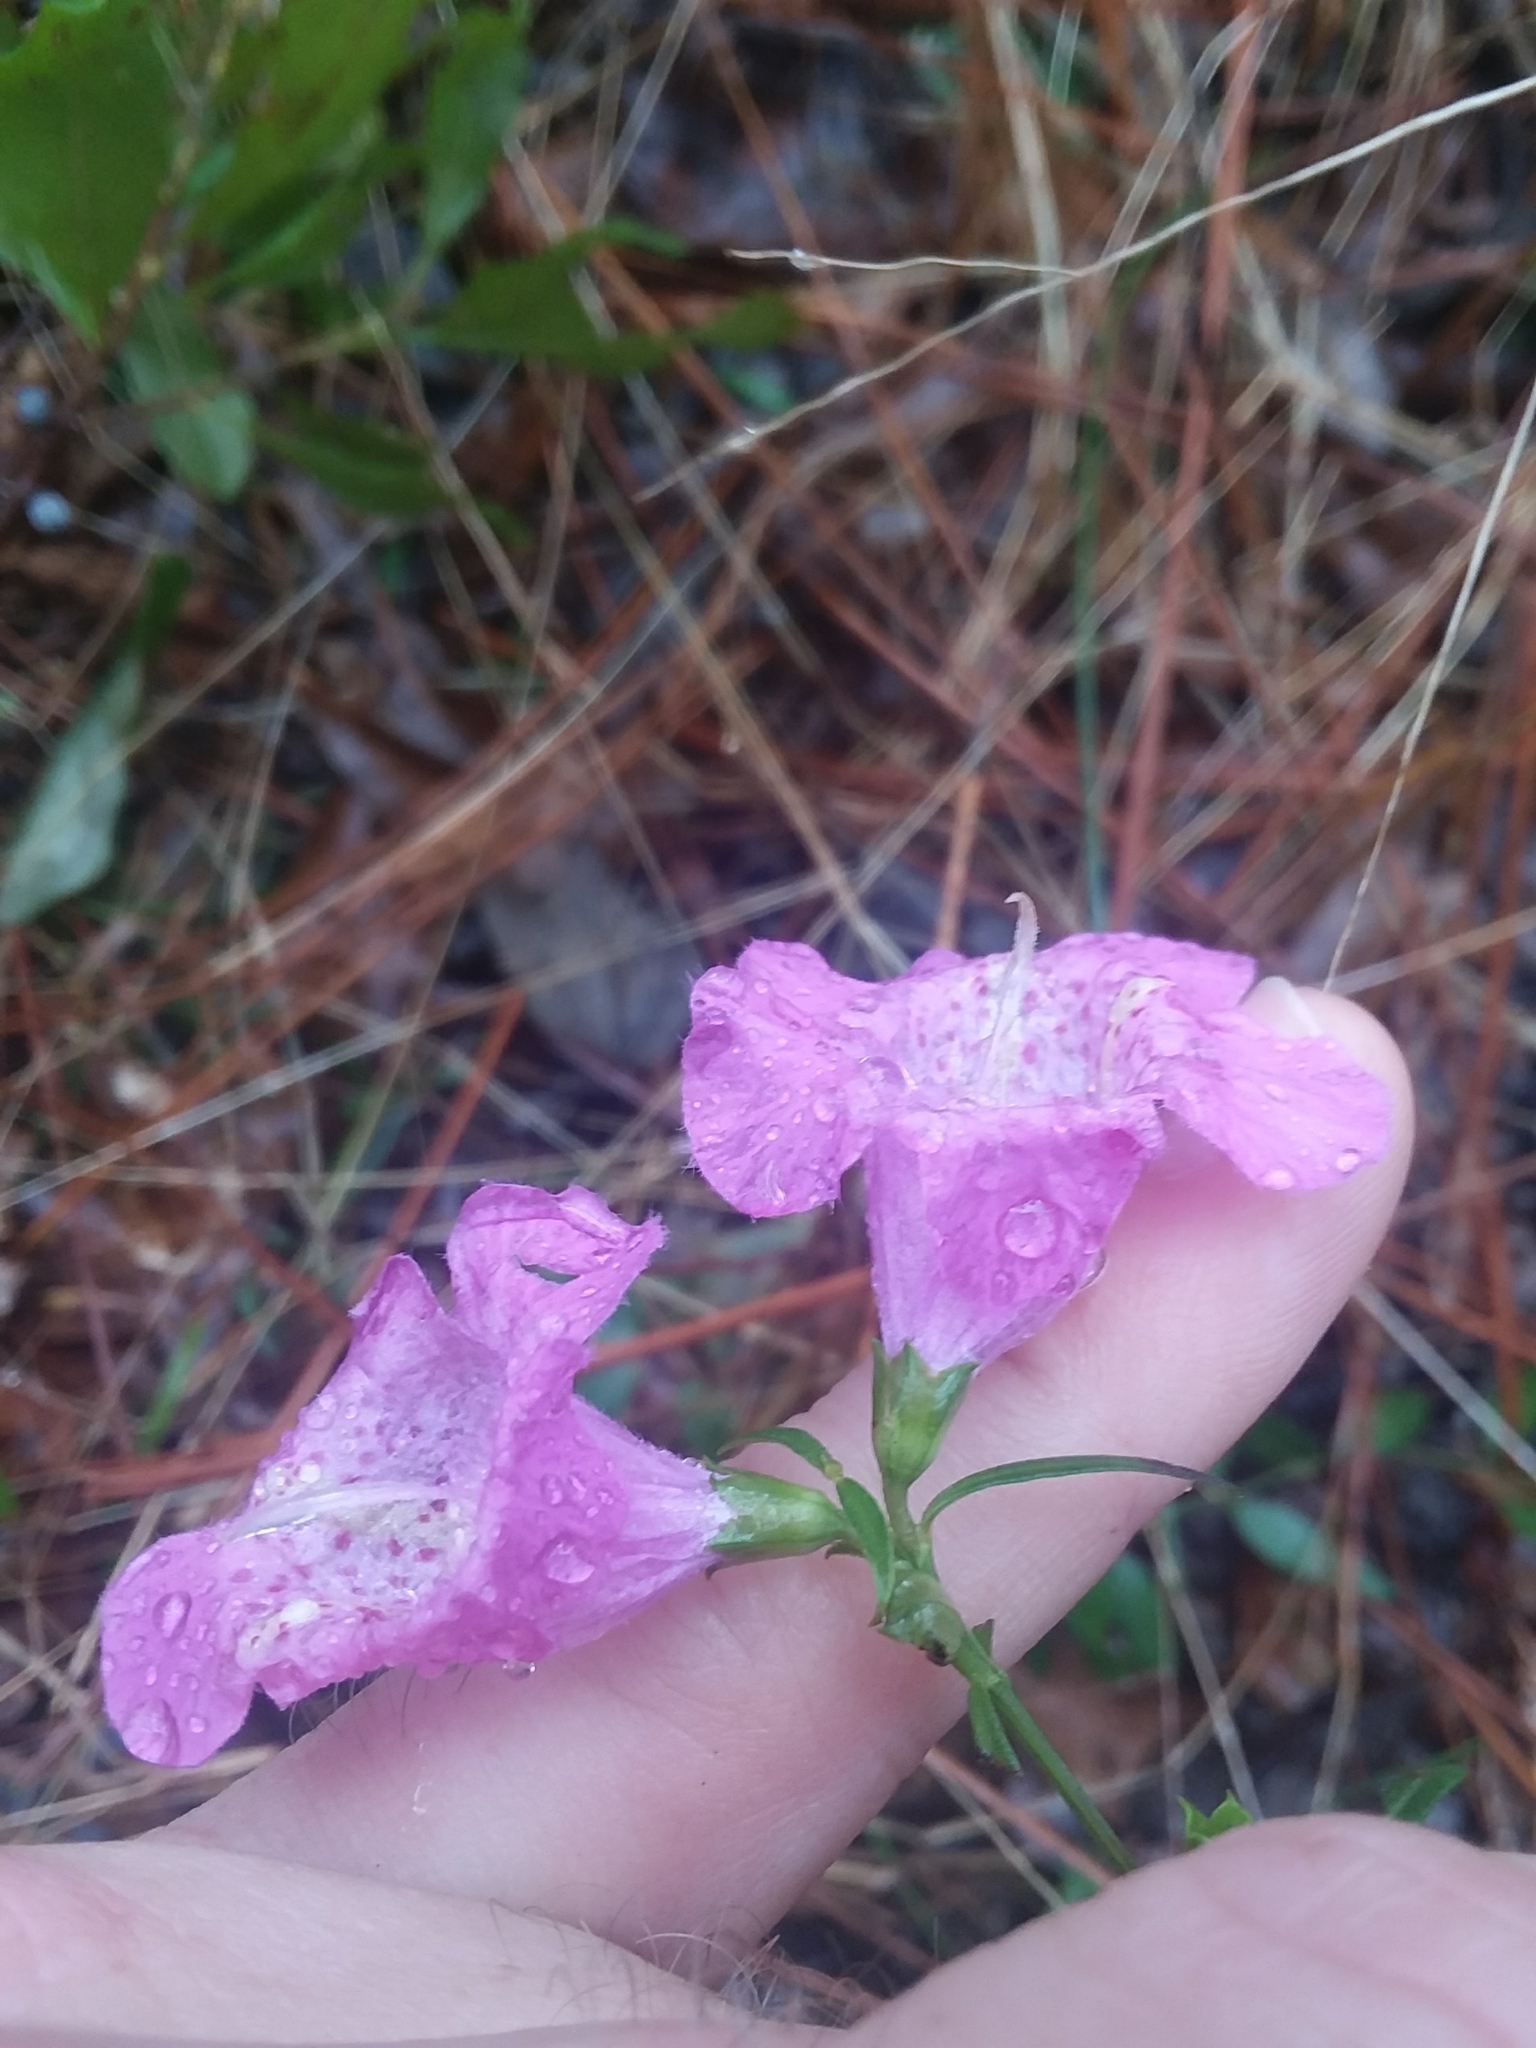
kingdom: Plantae
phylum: Tracheophyta
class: Magnoliopsida
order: Lamiales
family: Orobanchaceae
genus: Agalinis
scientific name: Agalinis purpurea
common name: Purple false foxglove
